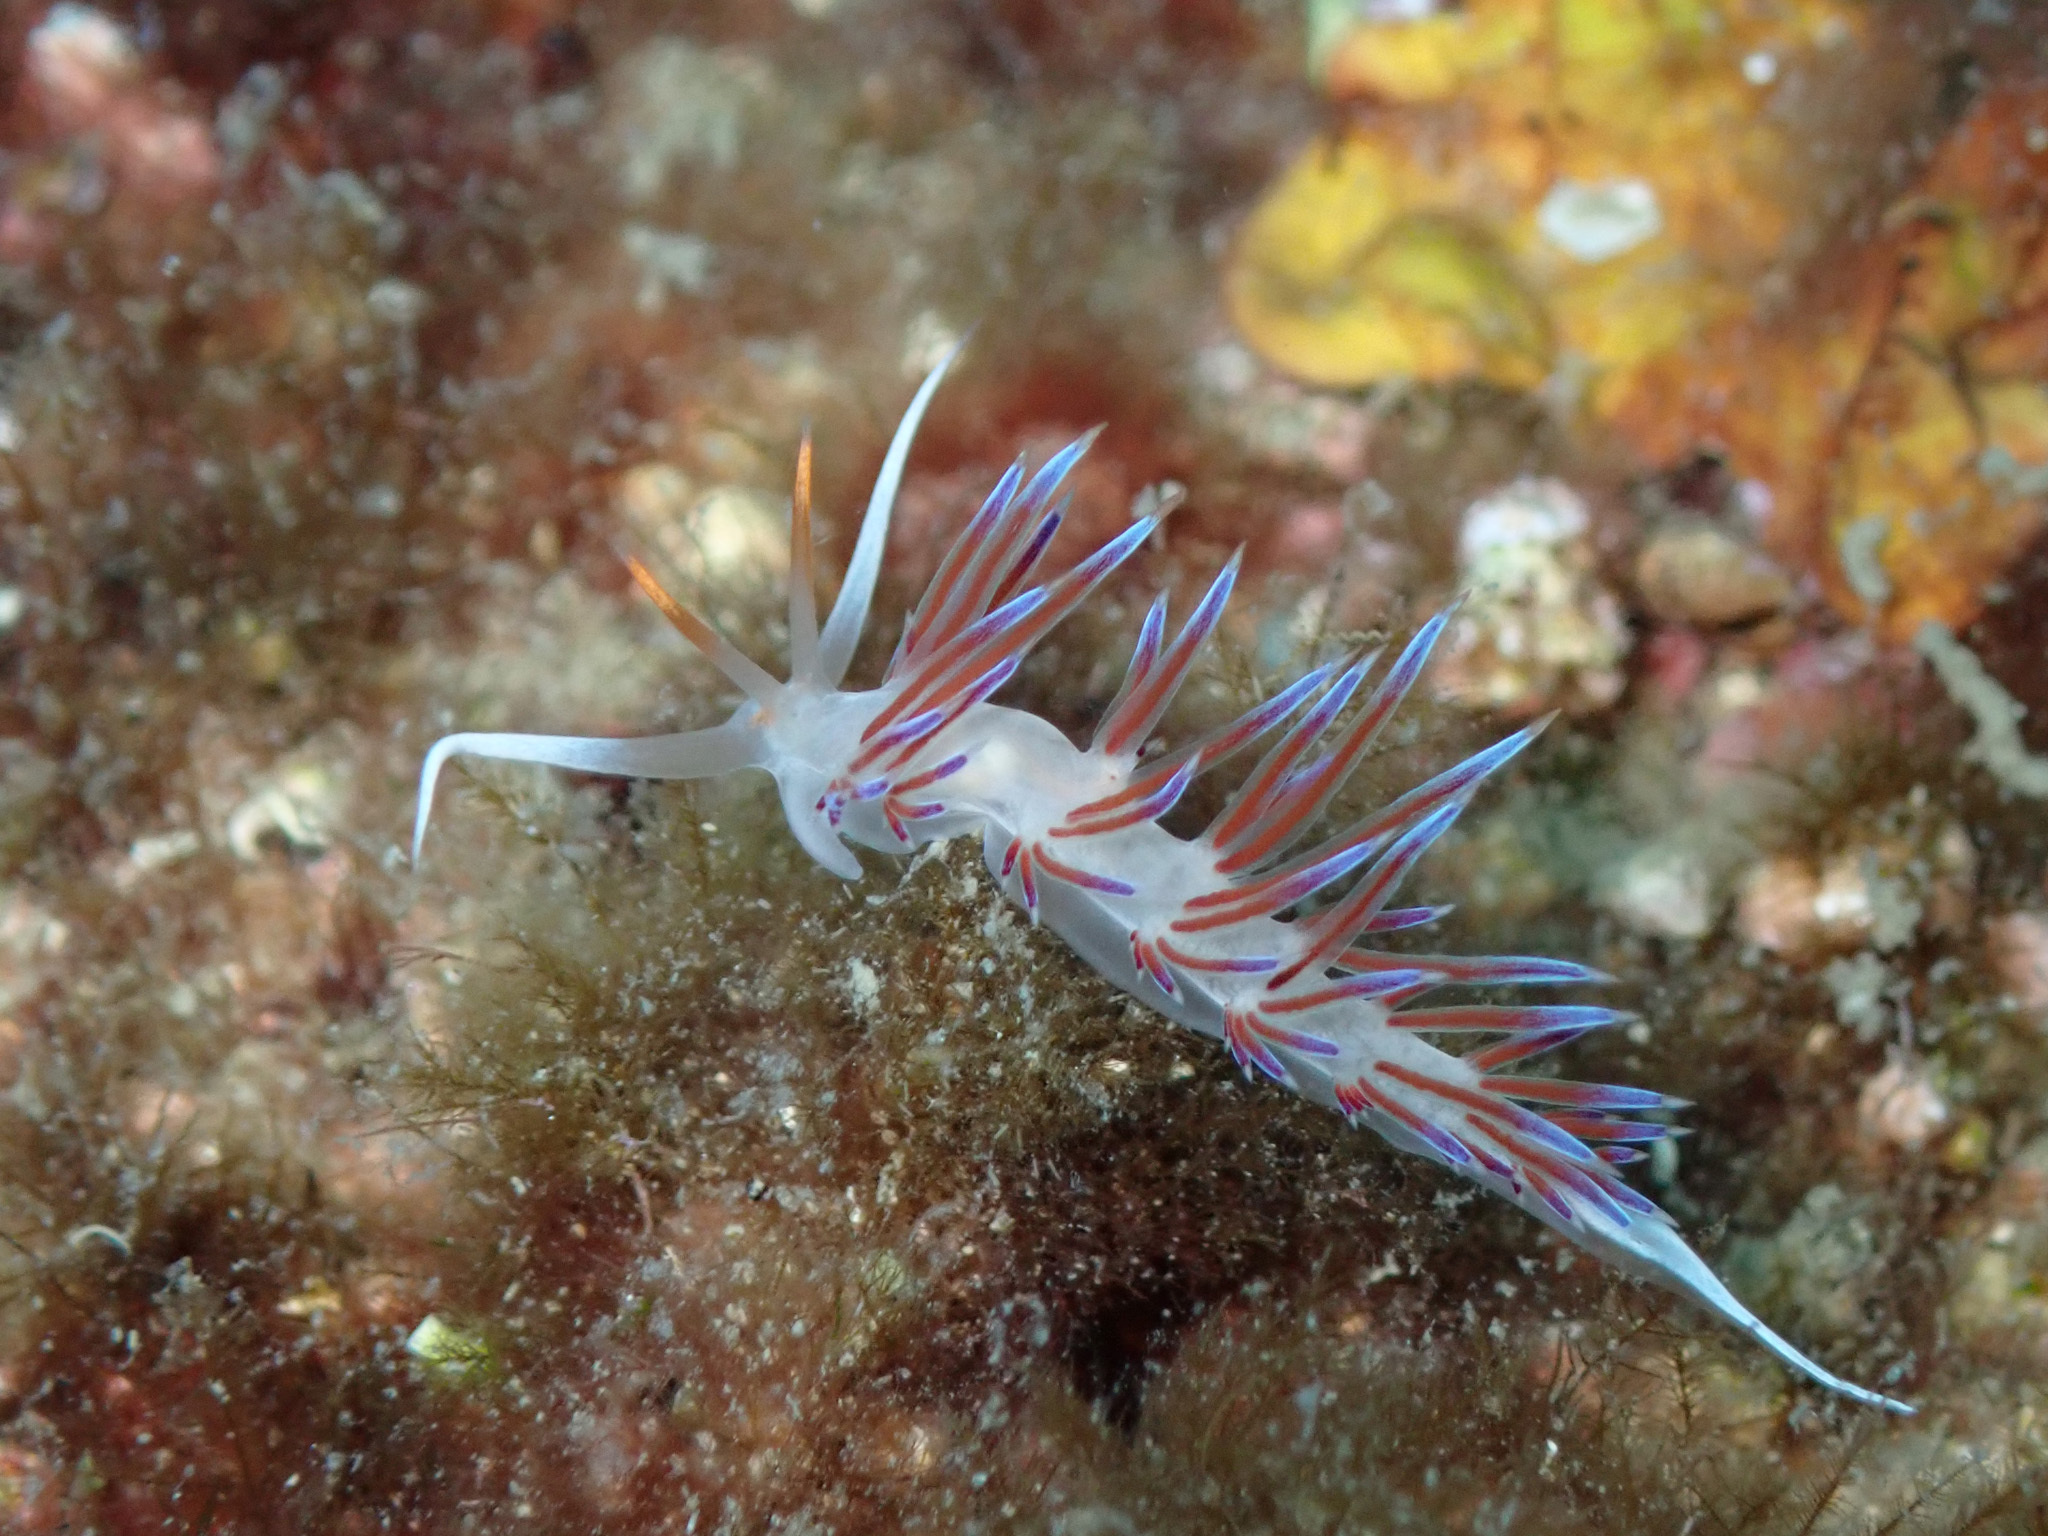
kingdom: Animalia
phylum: Mollusca
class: Gastropoda
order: Nudibranchia
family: Facelinidae
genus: Cratena
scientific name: Cratena peregrina
